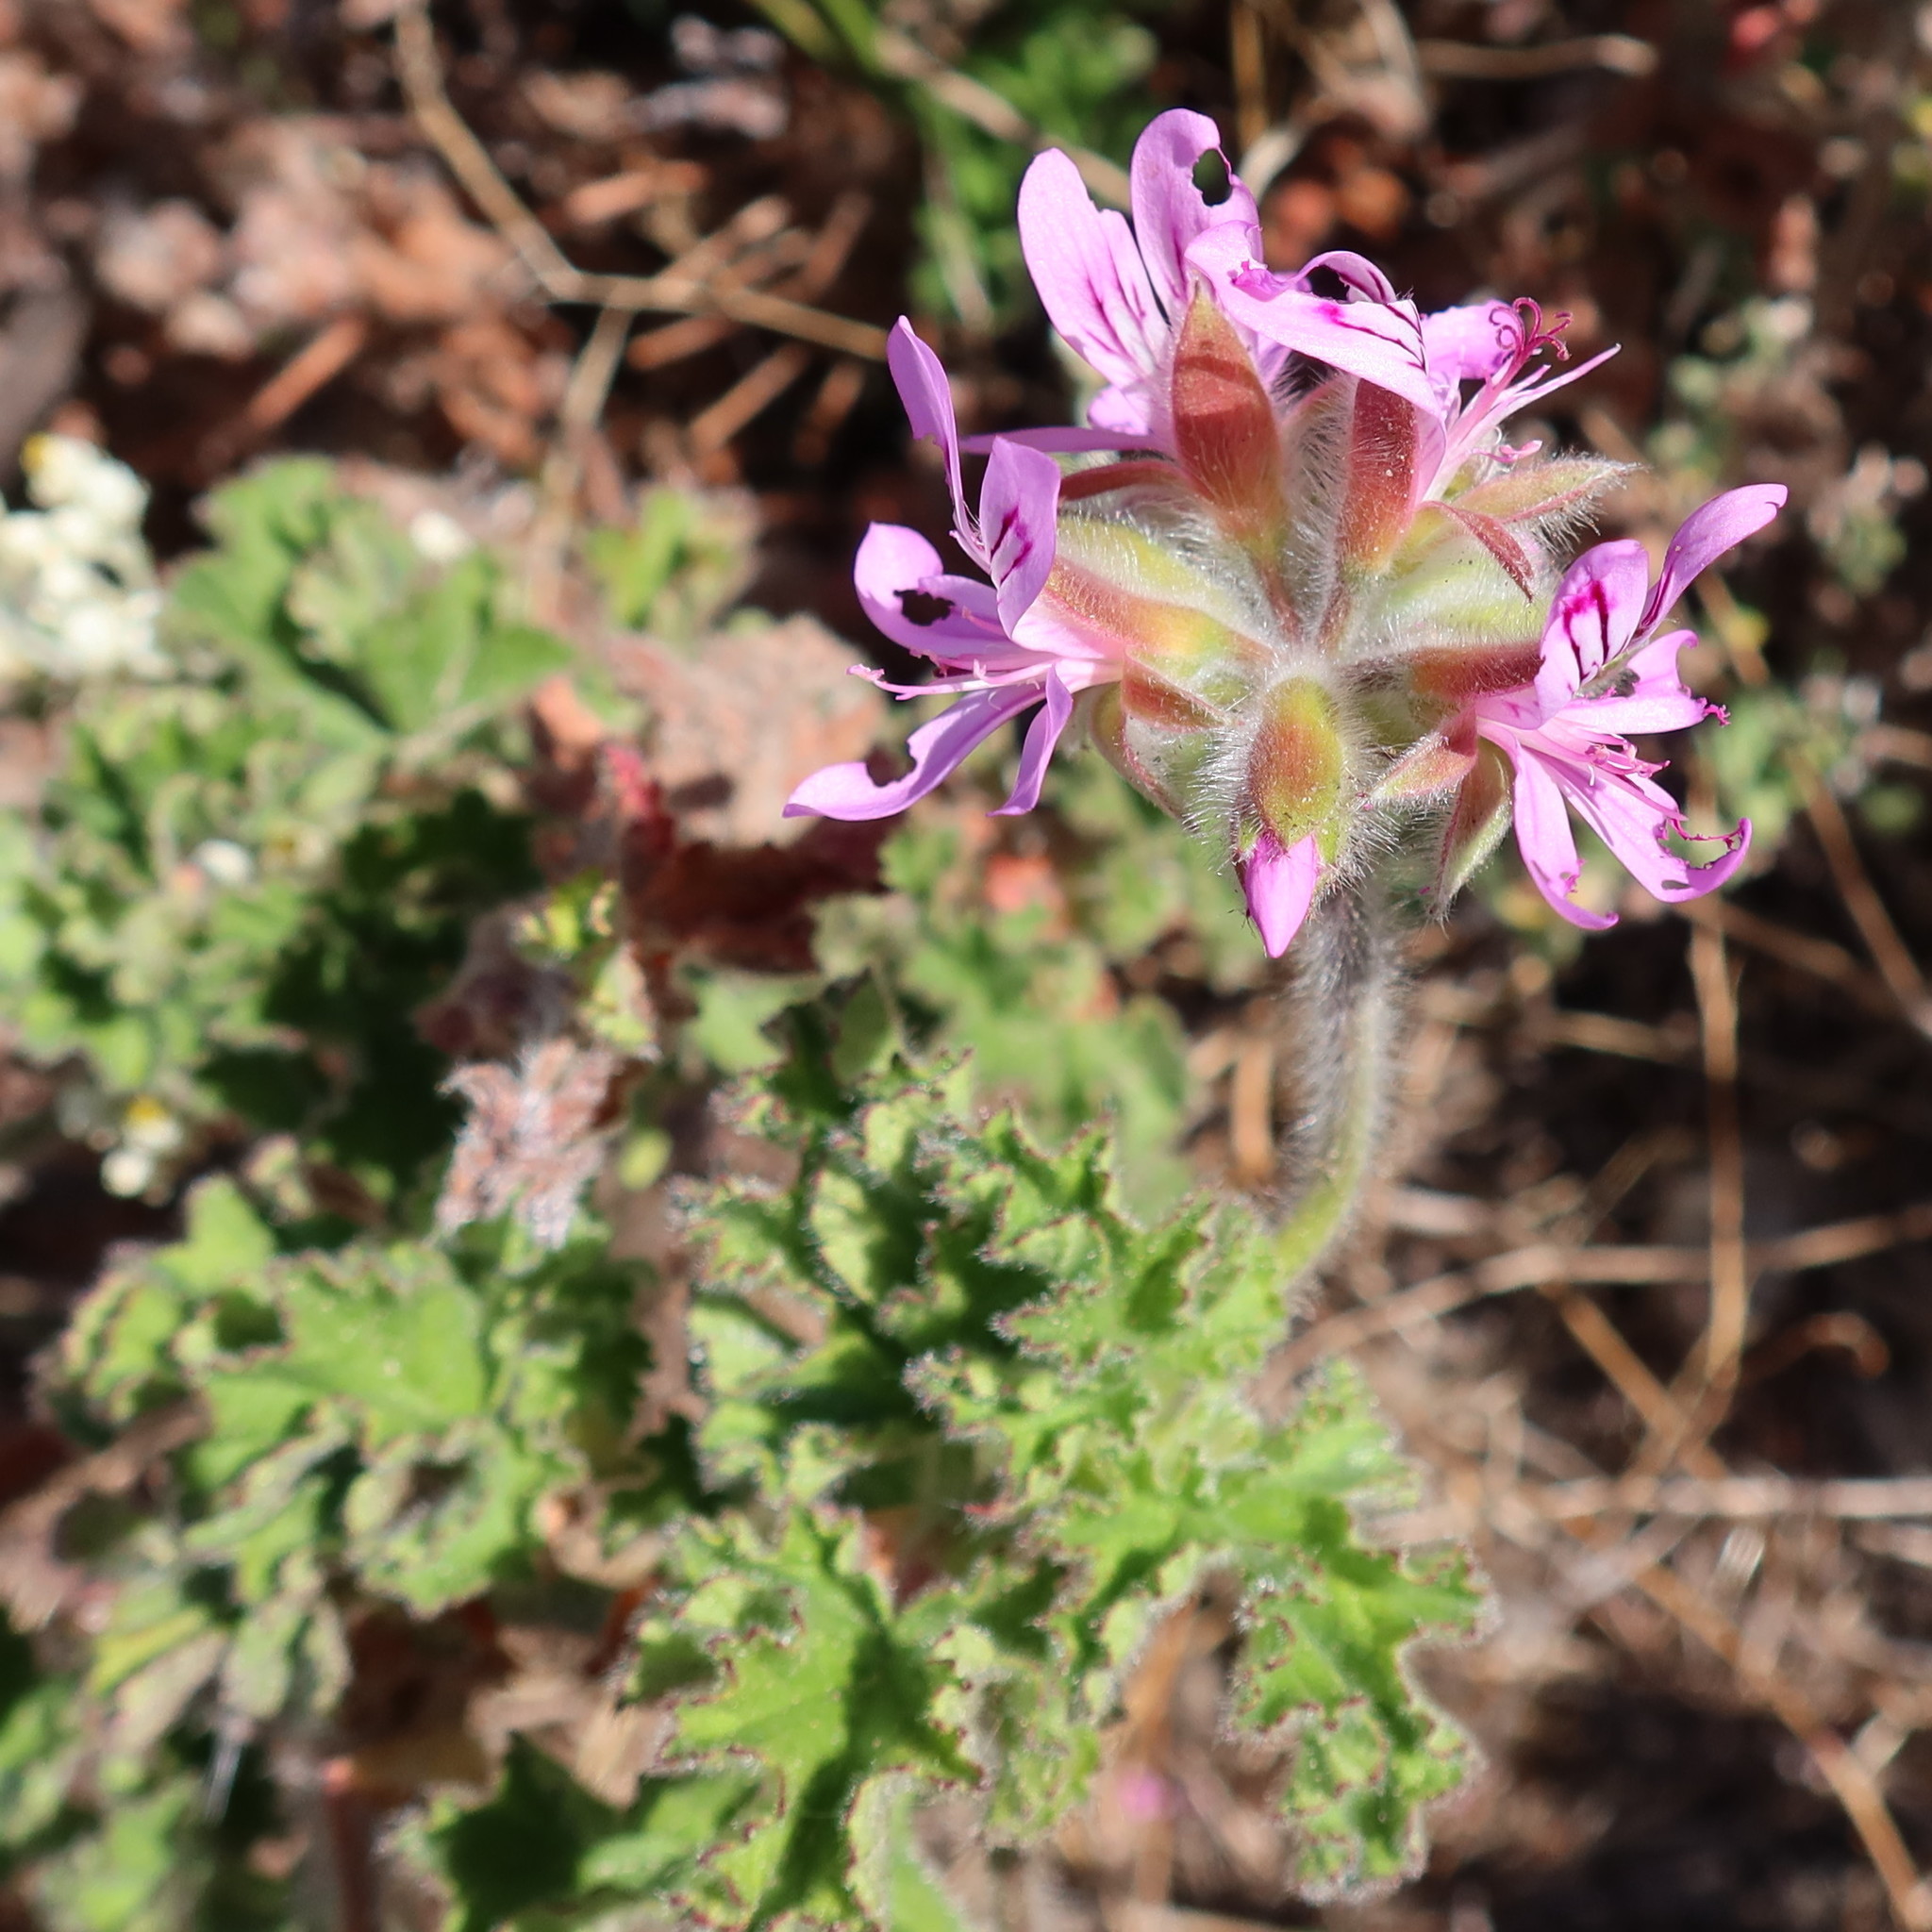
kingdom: Plantae
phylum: Tracheophyta
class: Magnoliopsida
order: Geraniales
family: Geraniaceae
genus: Pelargonium
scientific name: Pelargonium capitatum
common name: Rose scented geranium
